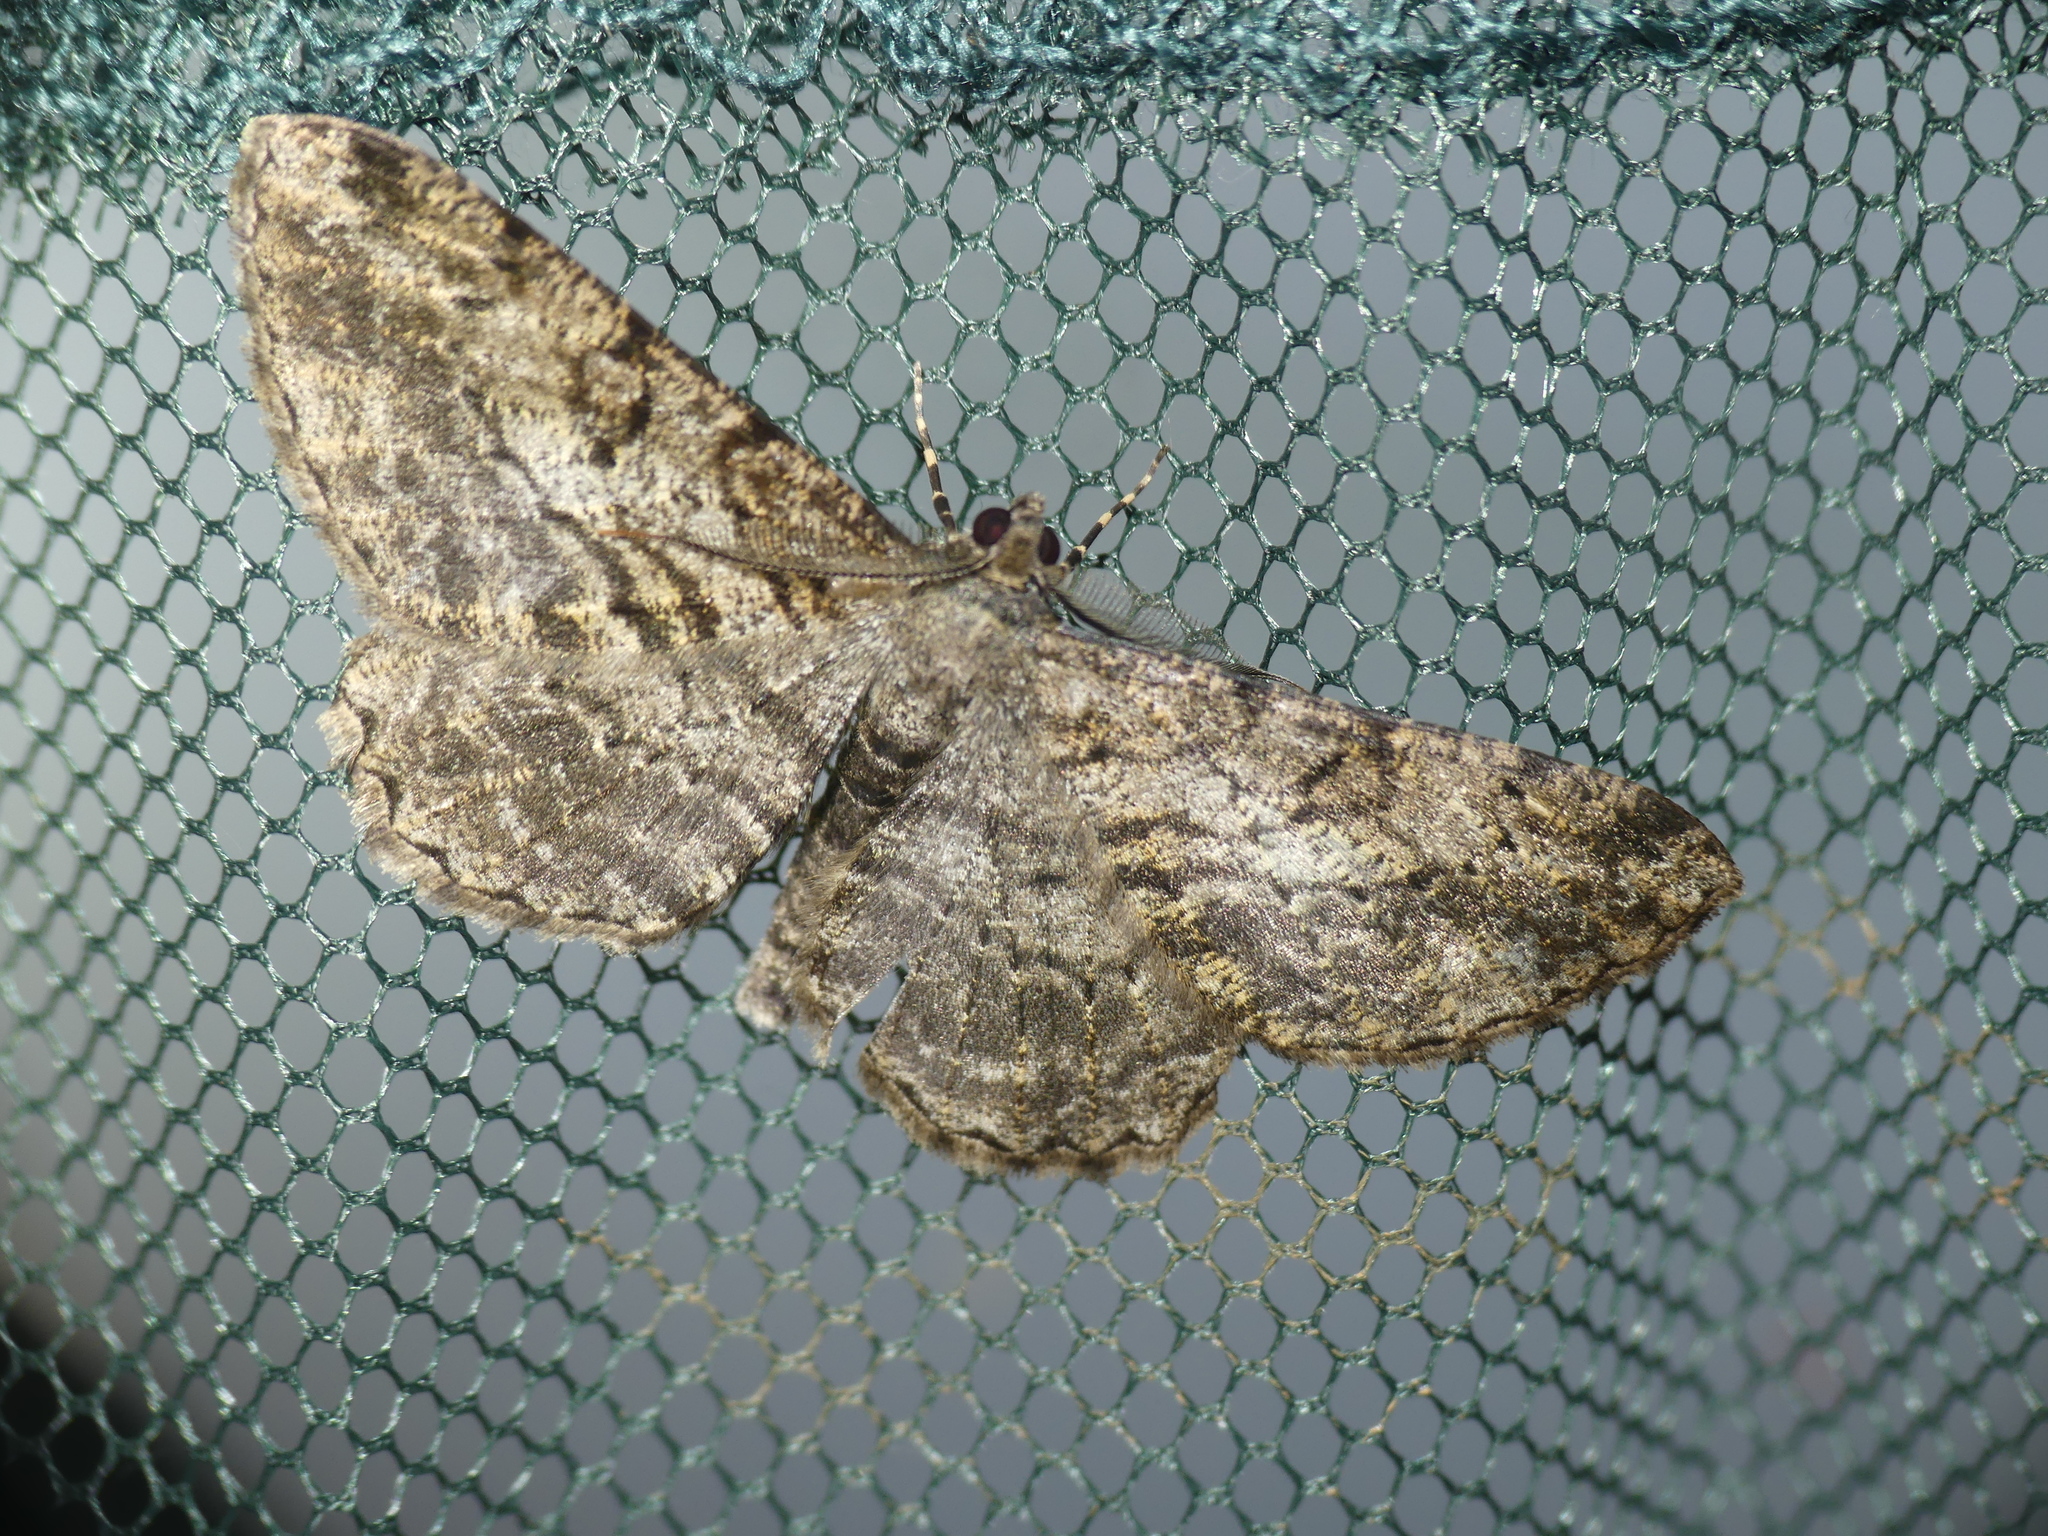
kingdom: Animalia
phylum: Arthropoda
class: Insecta
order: Lepidoptera
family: Geometridae
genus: Peribatodes
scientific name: Peribatodes rhomboidaria
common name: Willow beauty
